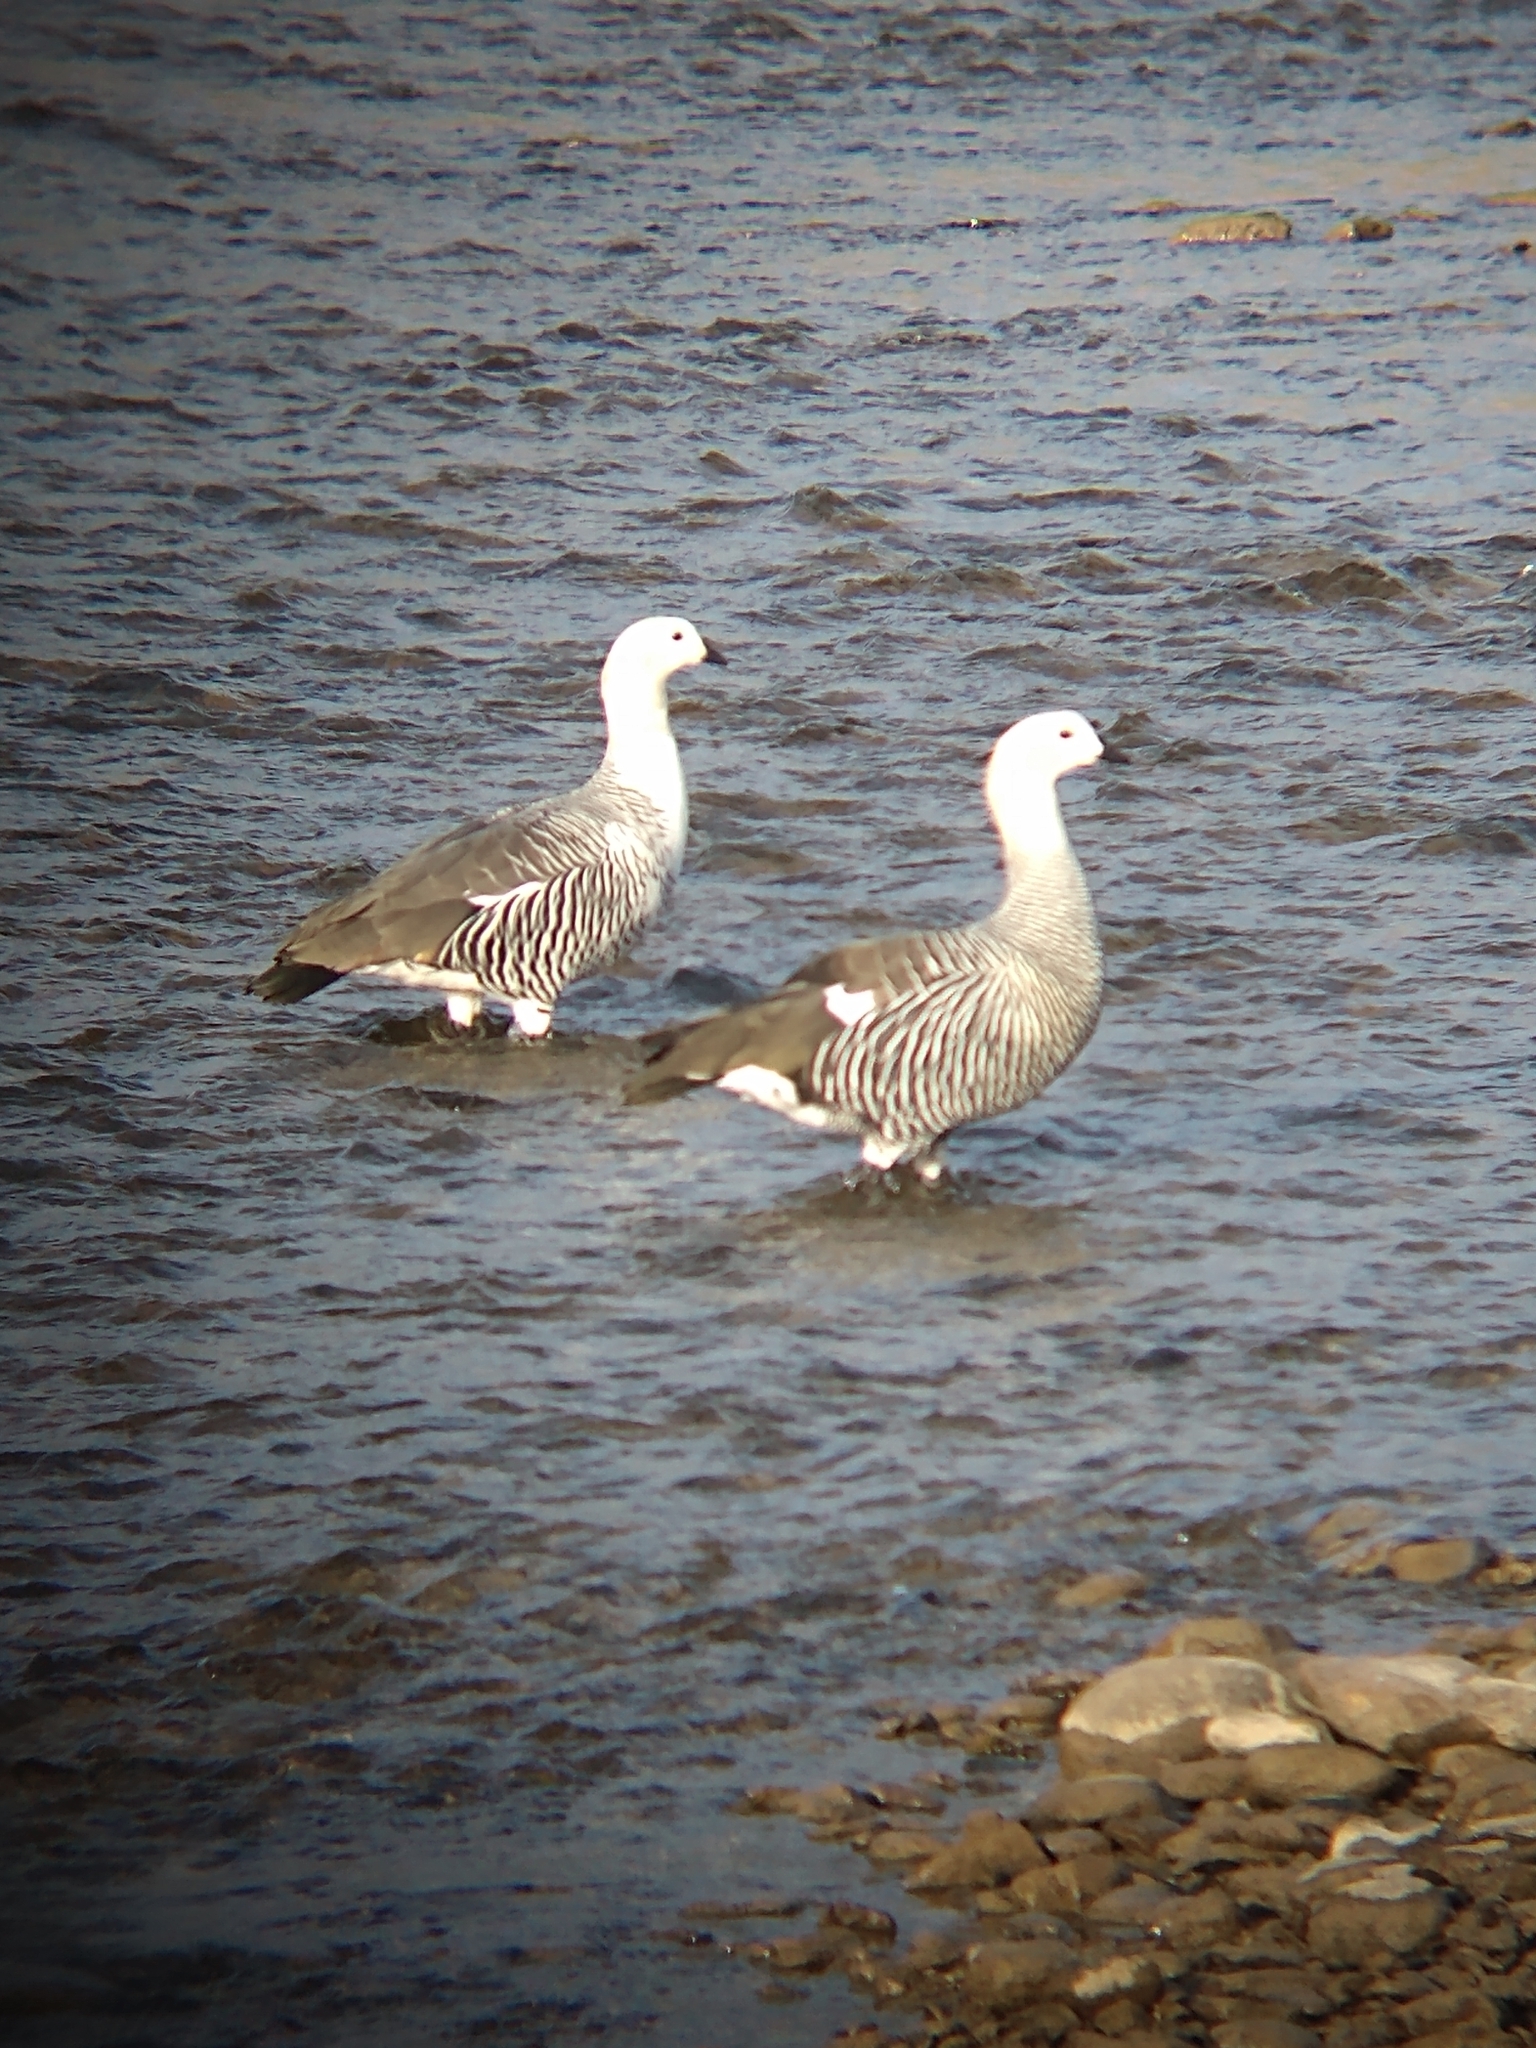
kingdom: Animalia
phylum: Chordata
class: Aves
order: Anseriformes
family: Anatidae
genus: Chloephaga
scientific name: Chloephaga picta
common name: Upland goose
